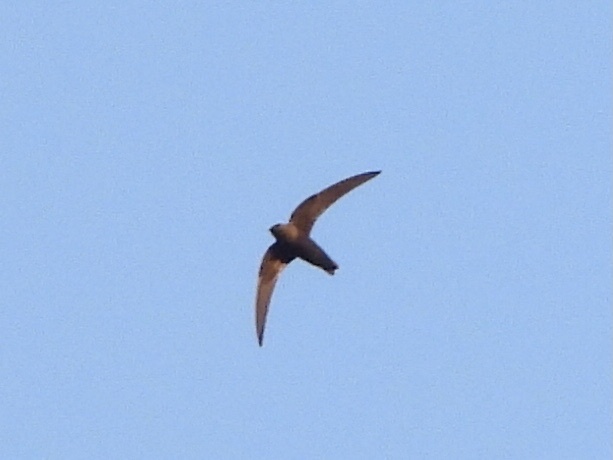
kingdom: Animalia
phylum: Chordata
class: Aves
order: Apodiformes
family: Apodidae
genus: Cypseloides
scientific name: Cypseloides niger
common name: Black swift
